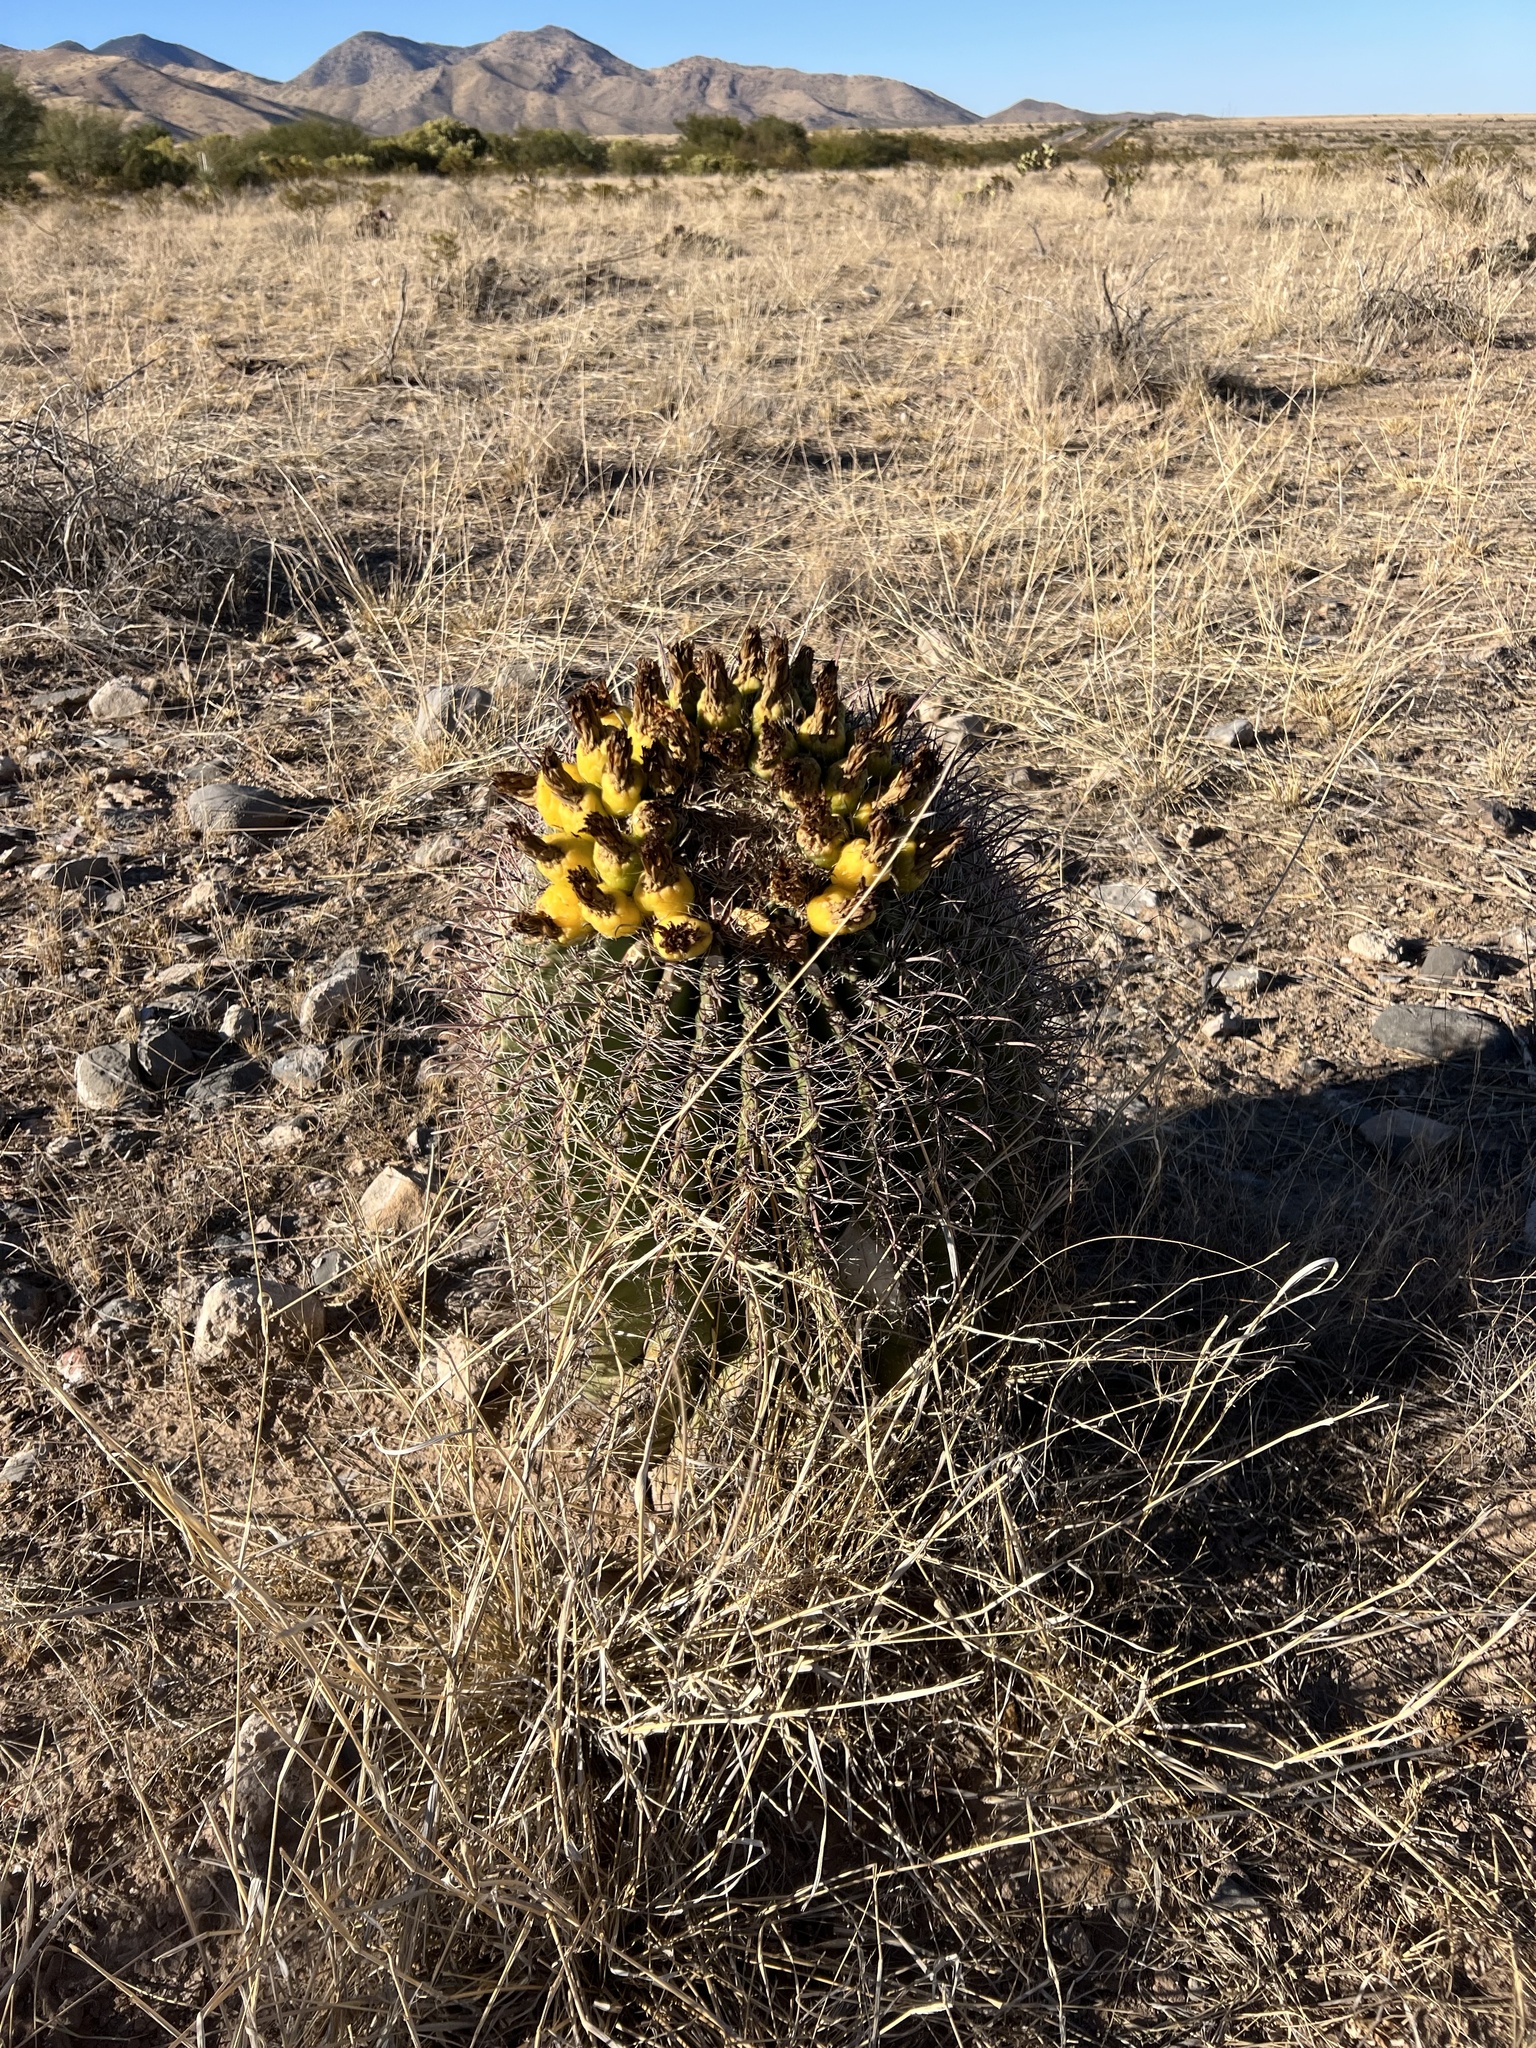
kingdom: Plantae
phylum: Tracheophyta
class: Magnoliopsida
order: Caryophyllales
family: Cactaceae
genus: Ferocactus
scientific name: Ferocactus wislizeni
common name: Candy barrel cactus
